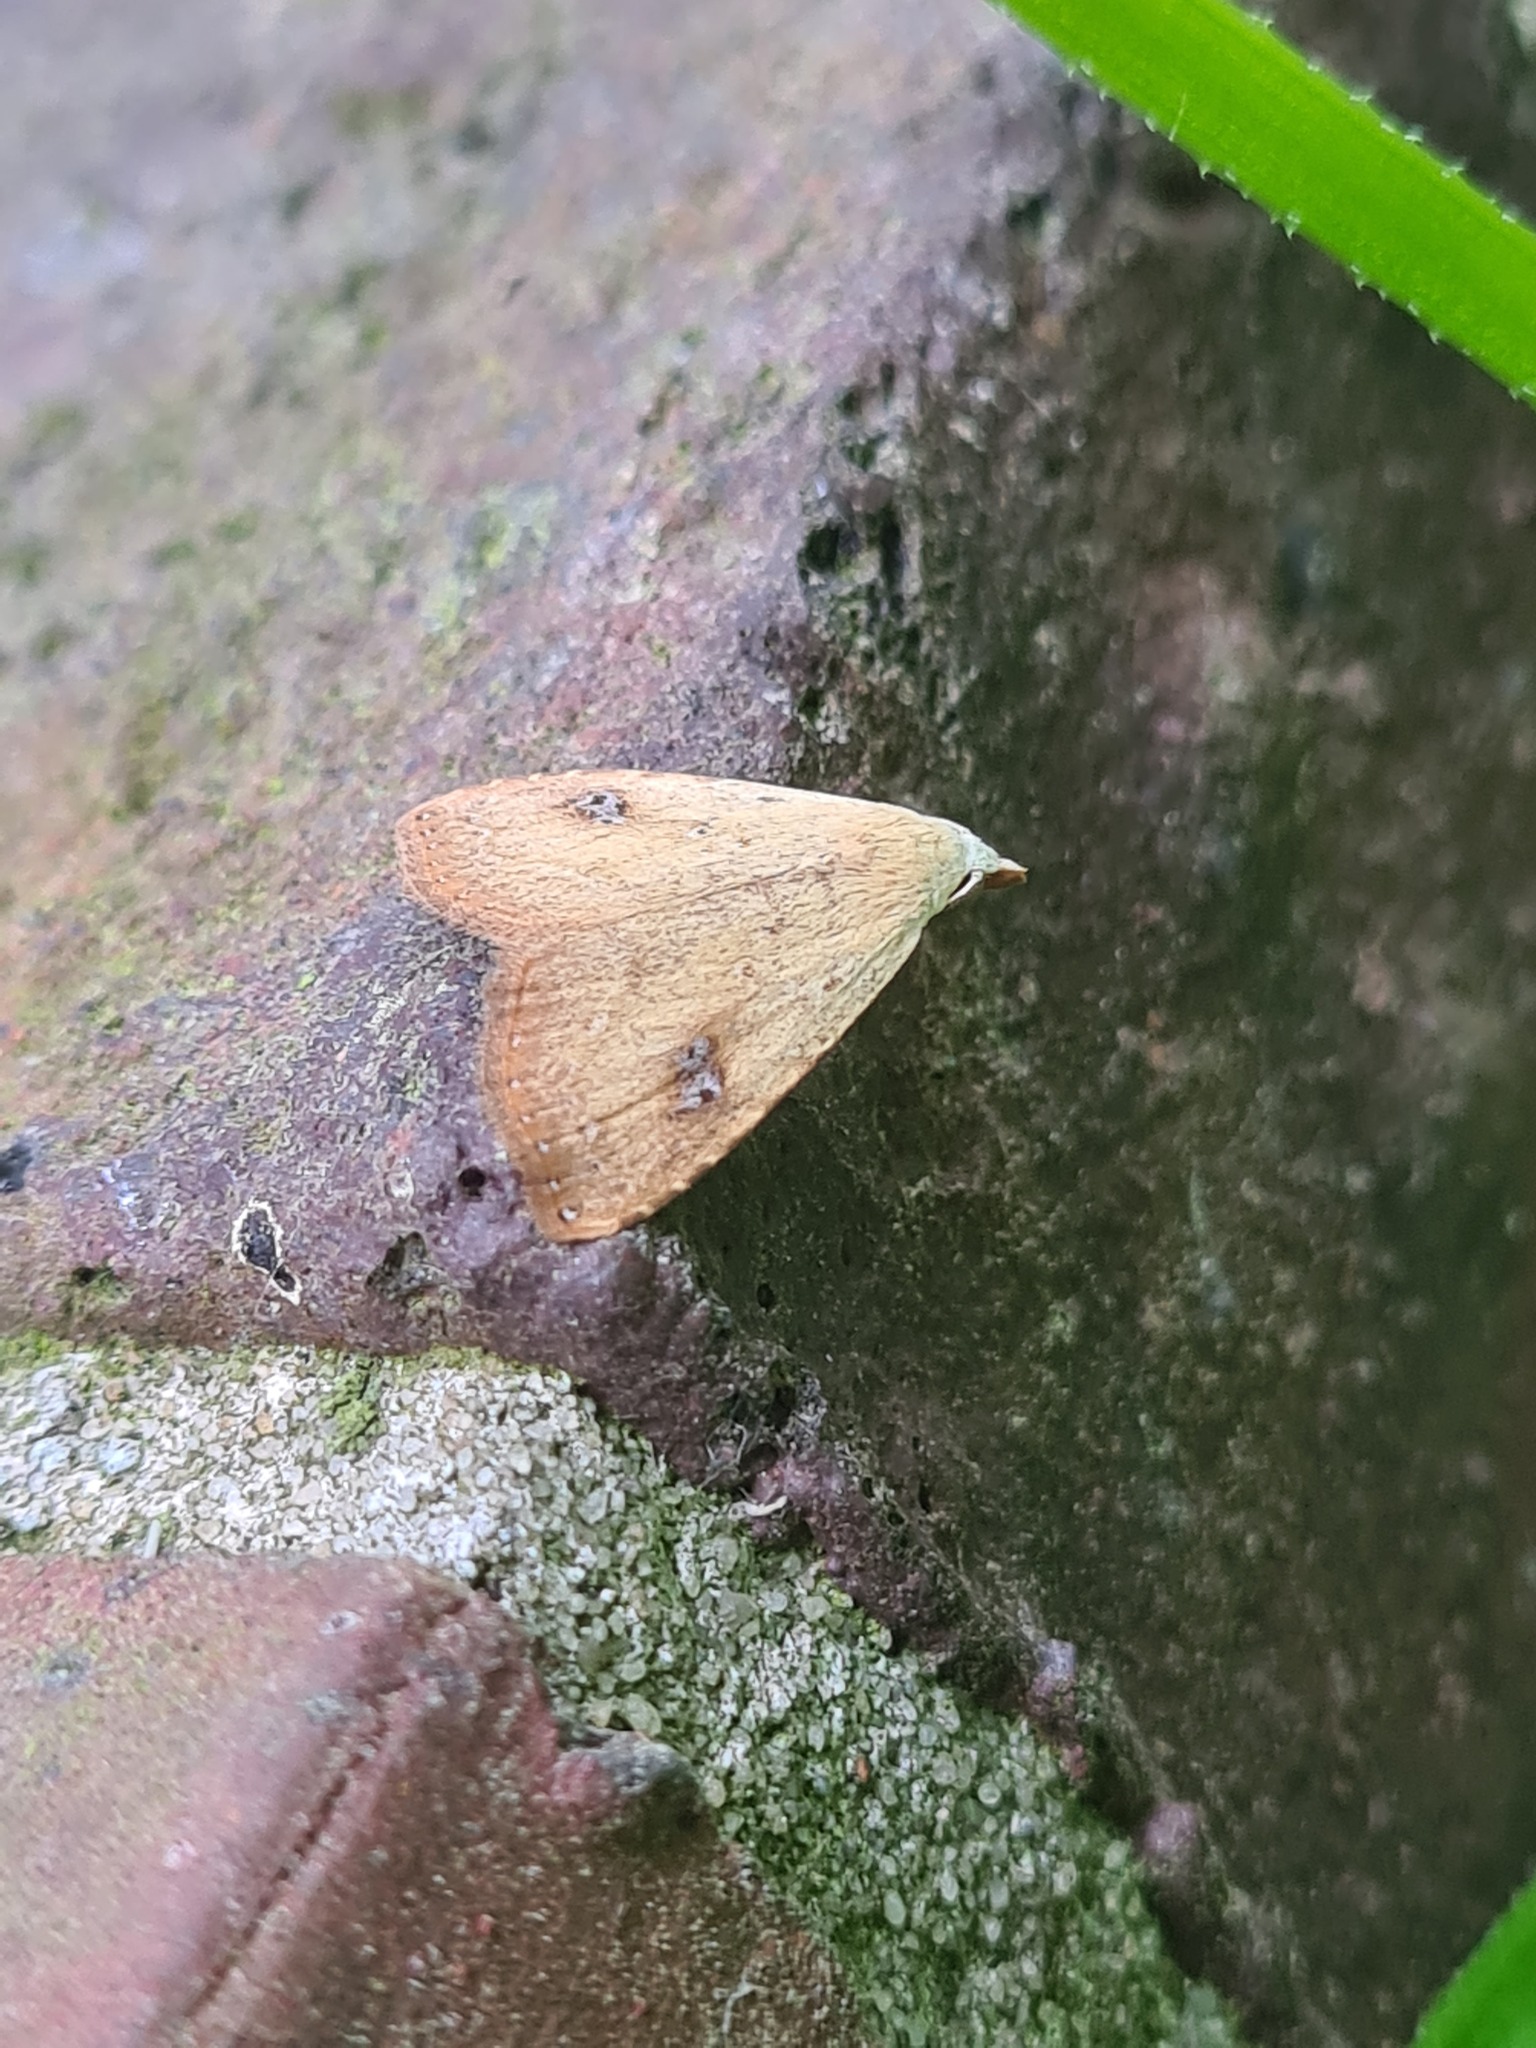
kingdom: Animalia
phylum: Arthropoda
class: Insecta
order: Lepidoptera
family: Erebidae
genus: Rivula
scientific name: Rivula sericealis
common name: Straw dot
